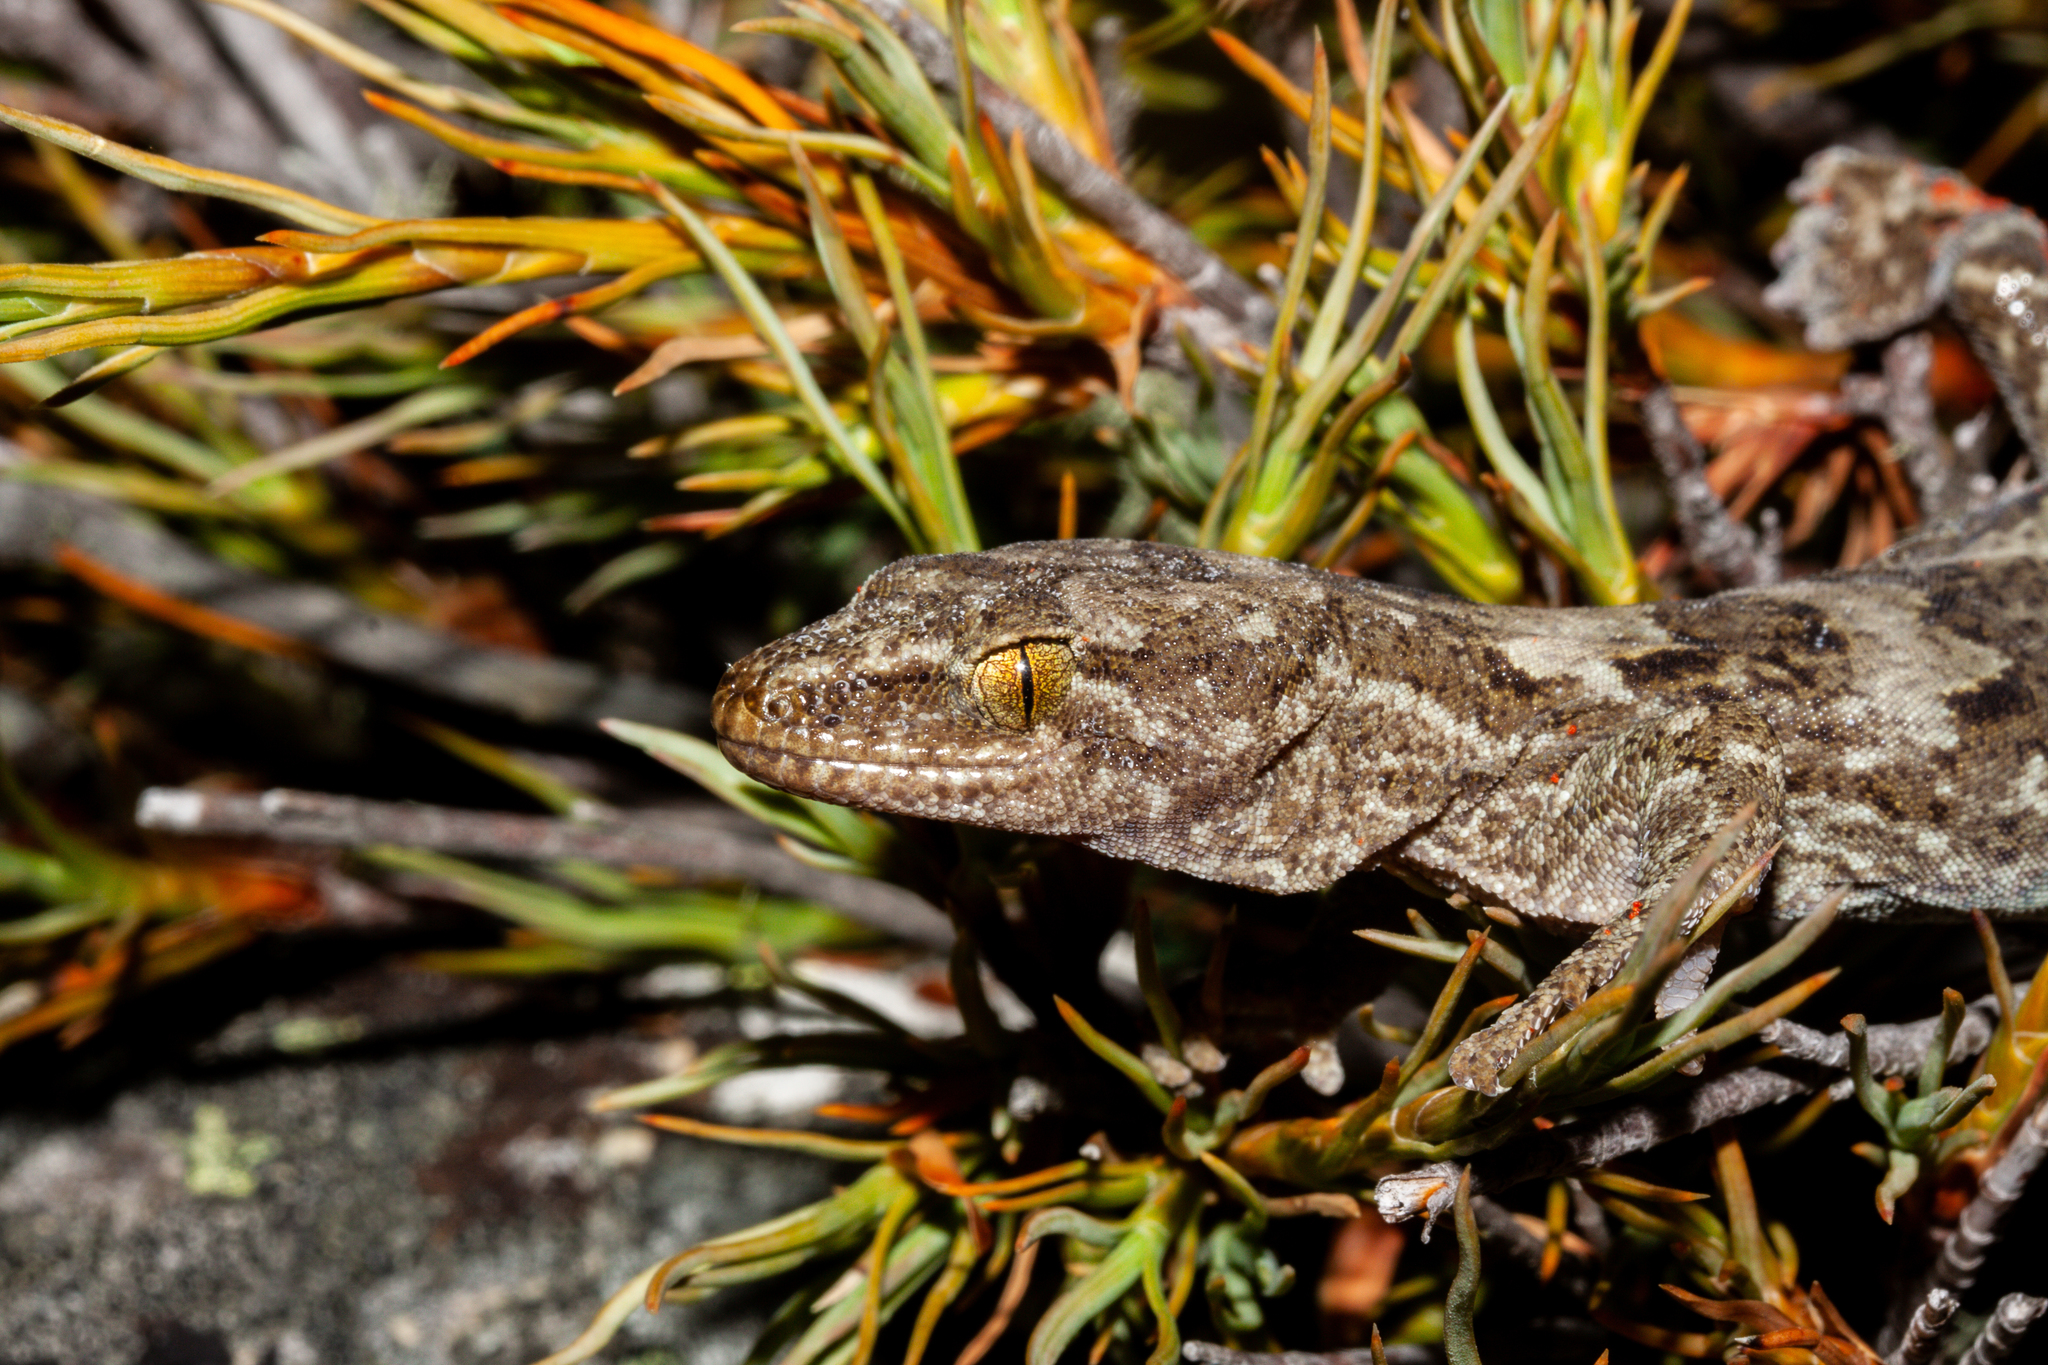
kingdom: Animalia
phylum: Chordata
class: Squamata
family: Diplodactylidae
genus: Woodworthia
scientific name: Woodworthia
